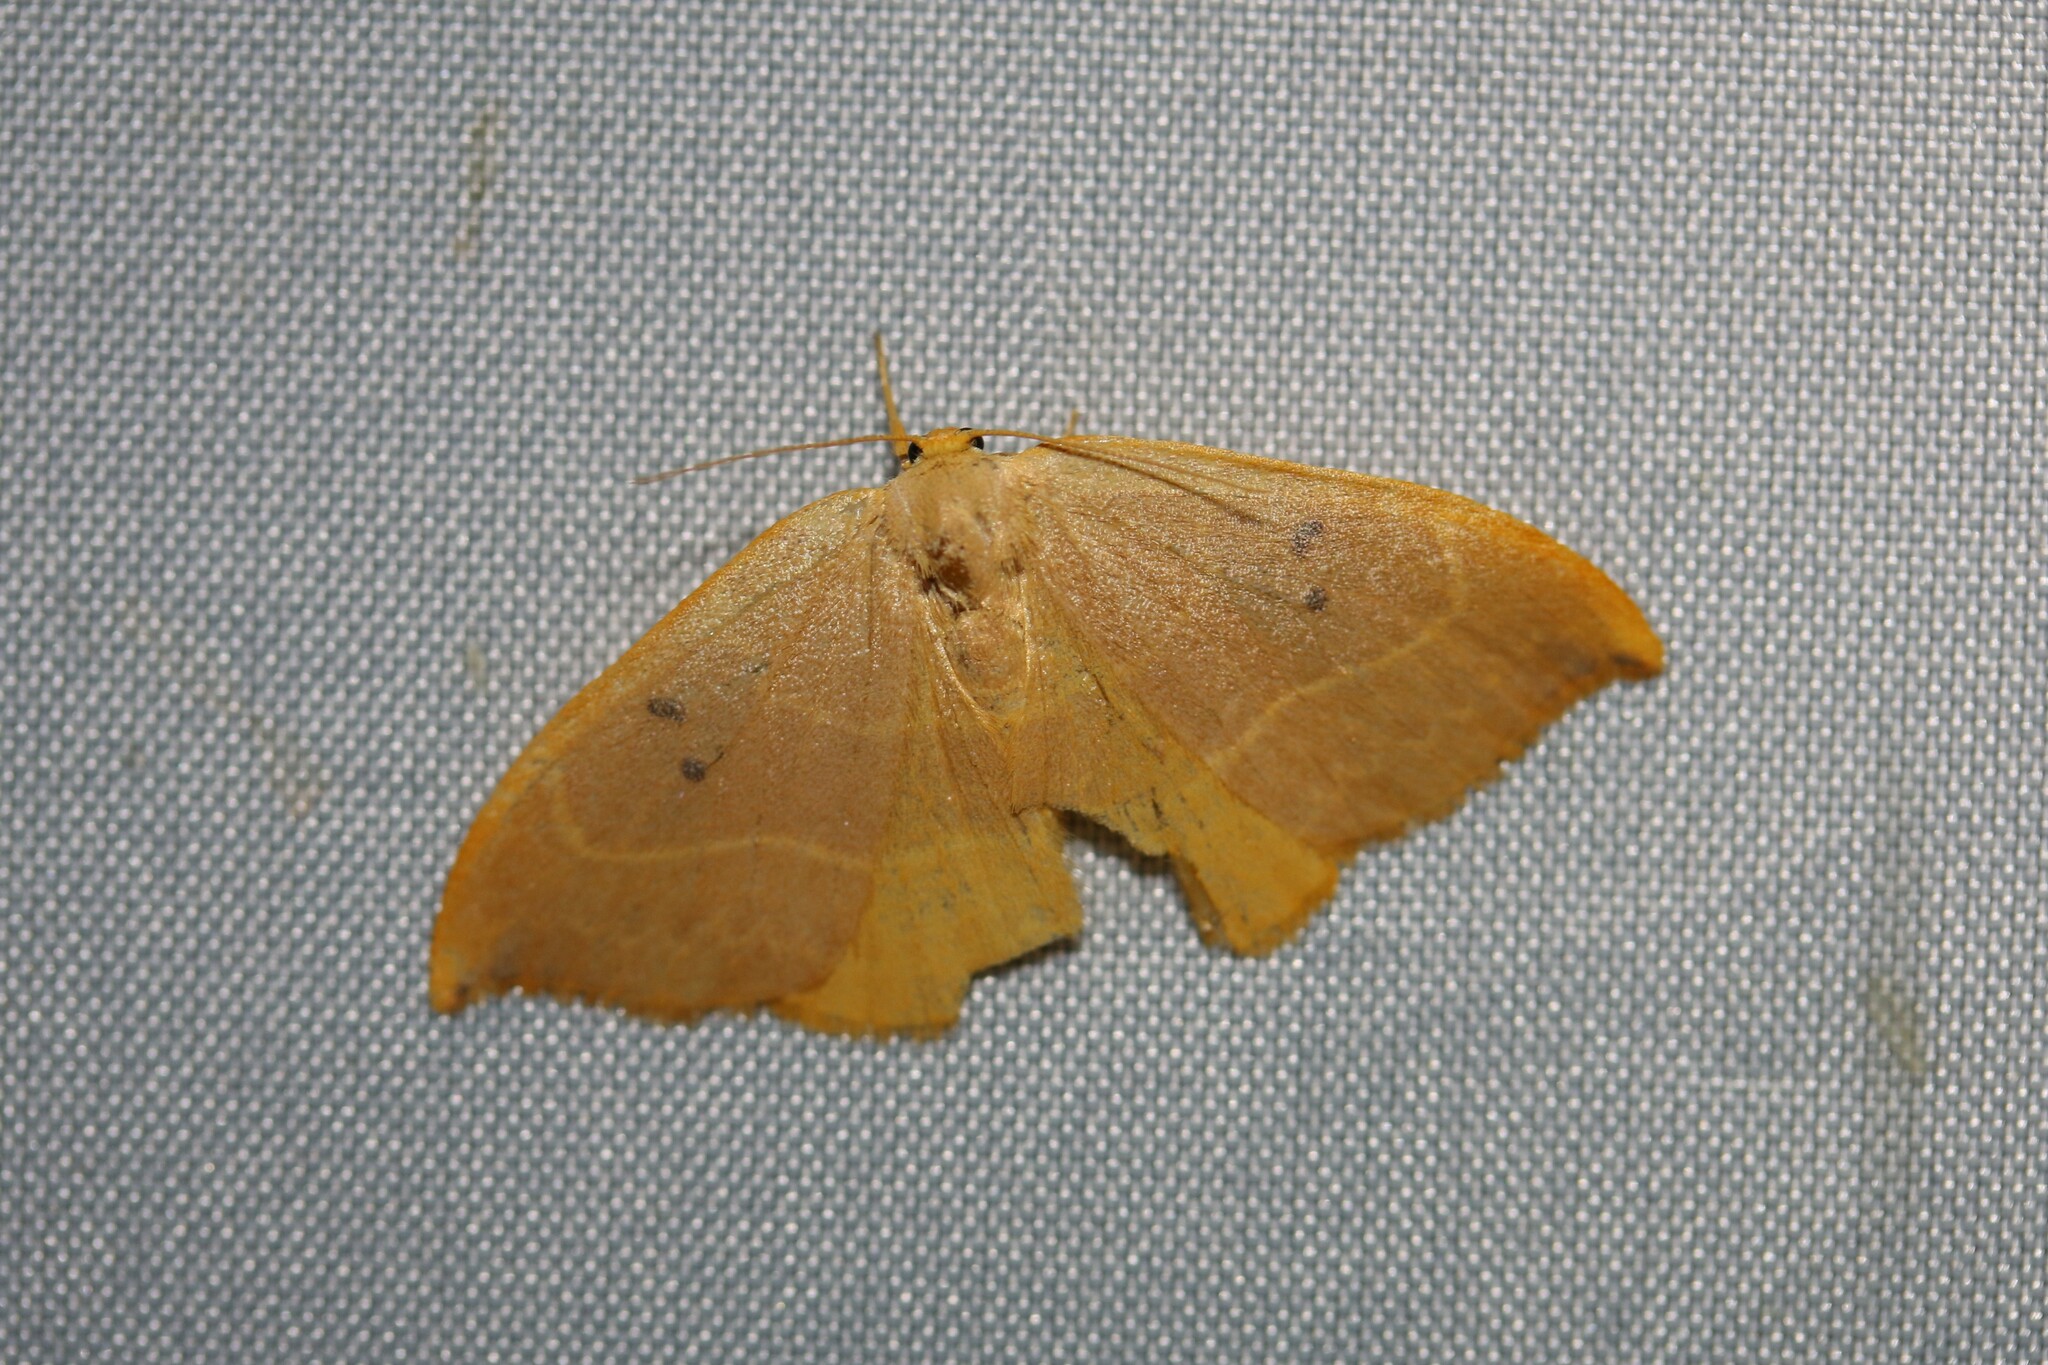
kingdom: Animalia
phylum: Arthropoda
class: Insecta
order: Lepidoptera
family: Drepanidae
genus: Watsonalla
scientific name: Watsonalla binaria
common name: Oak hook-tip
